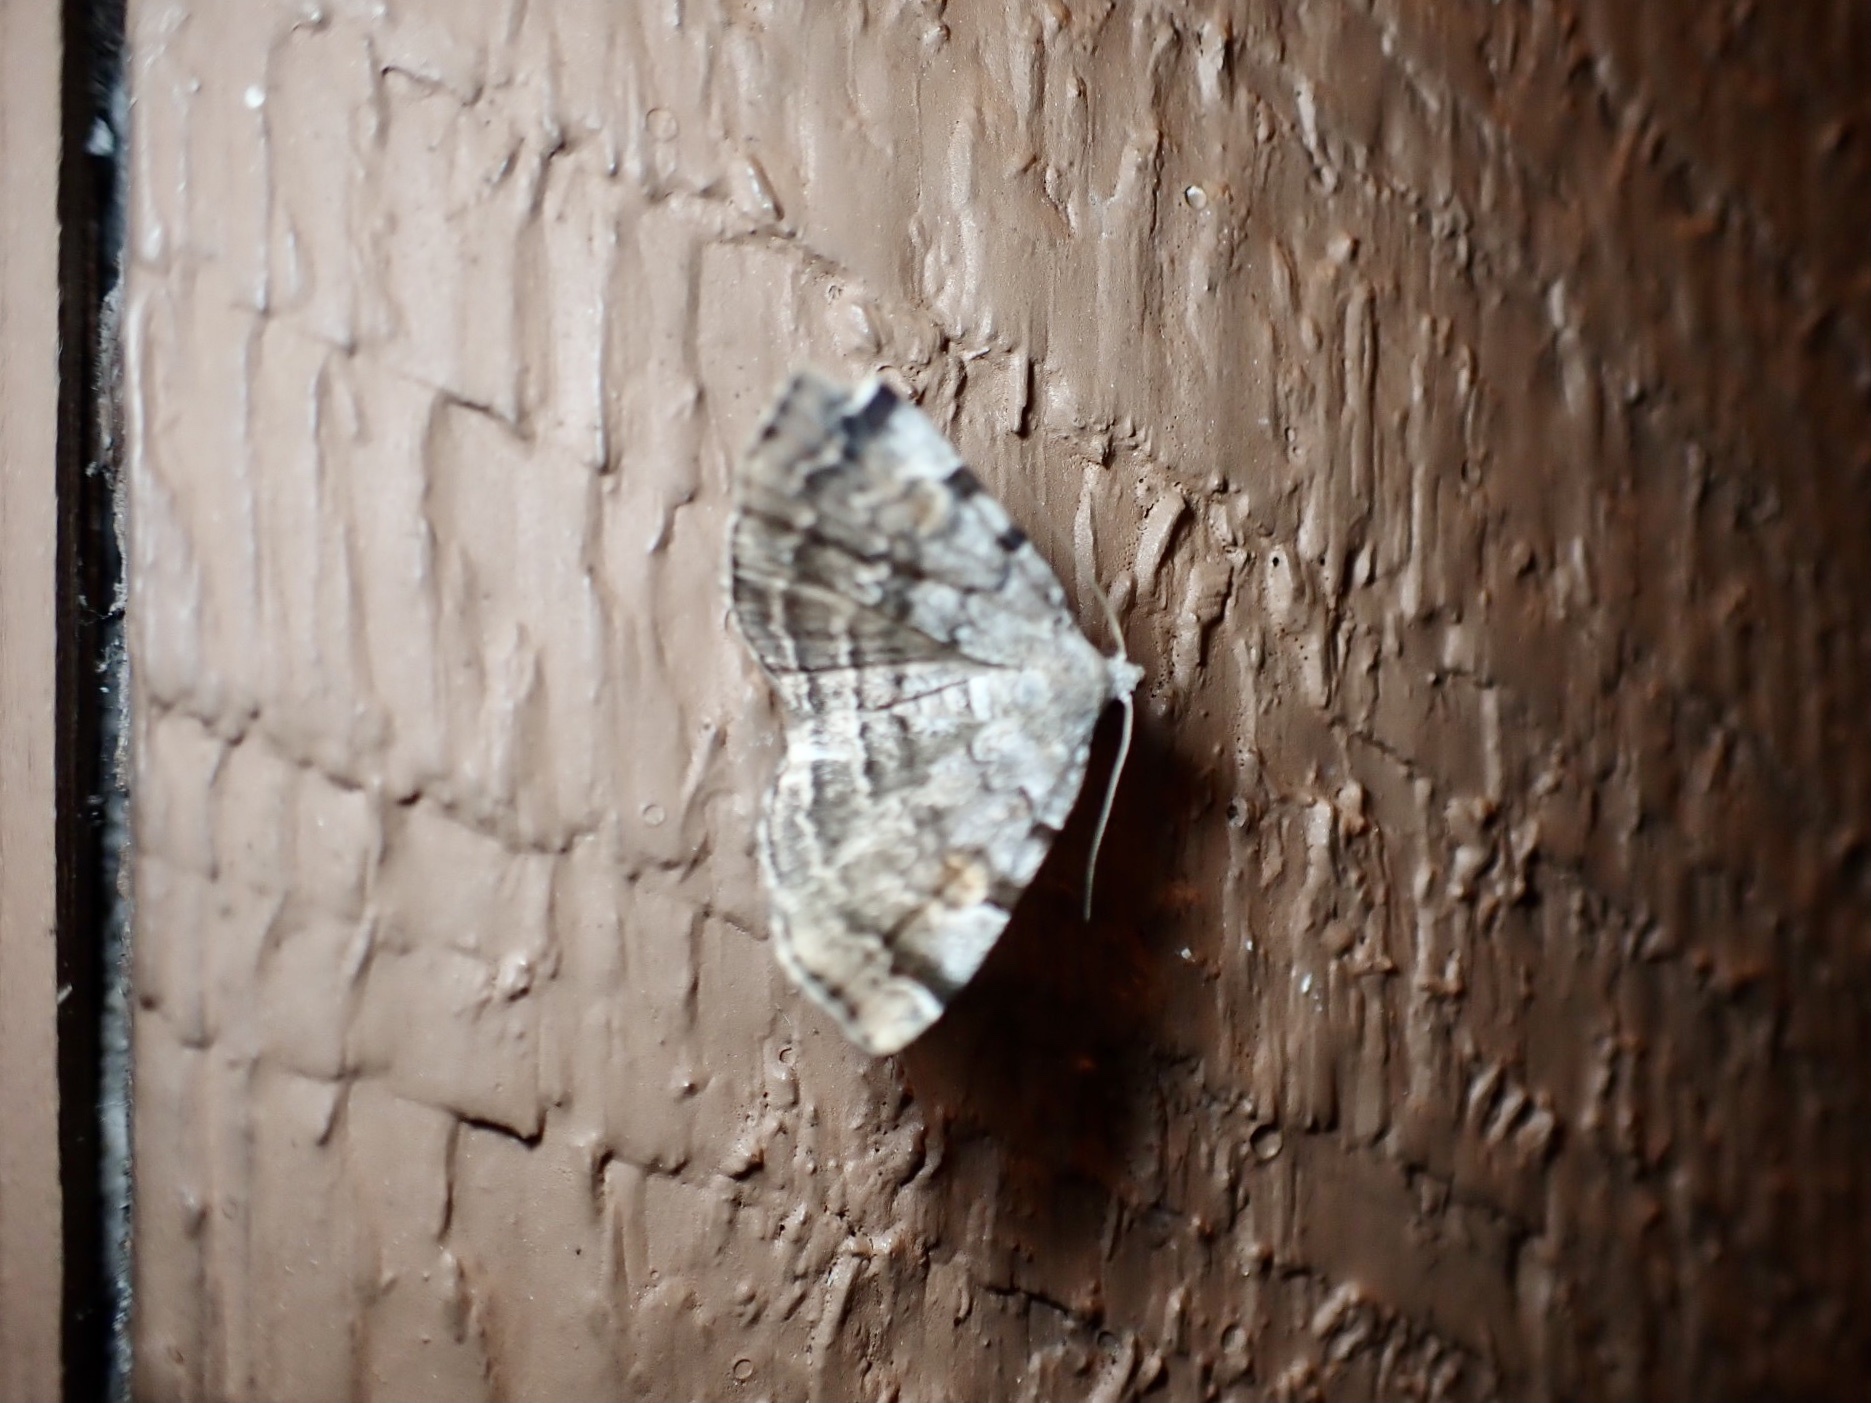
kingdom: Animalia
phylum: Arthropoda
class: Insecta
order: Lepidoptera
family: Erebidae
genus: Idia
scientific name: Idia americalis
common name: American idia moth
